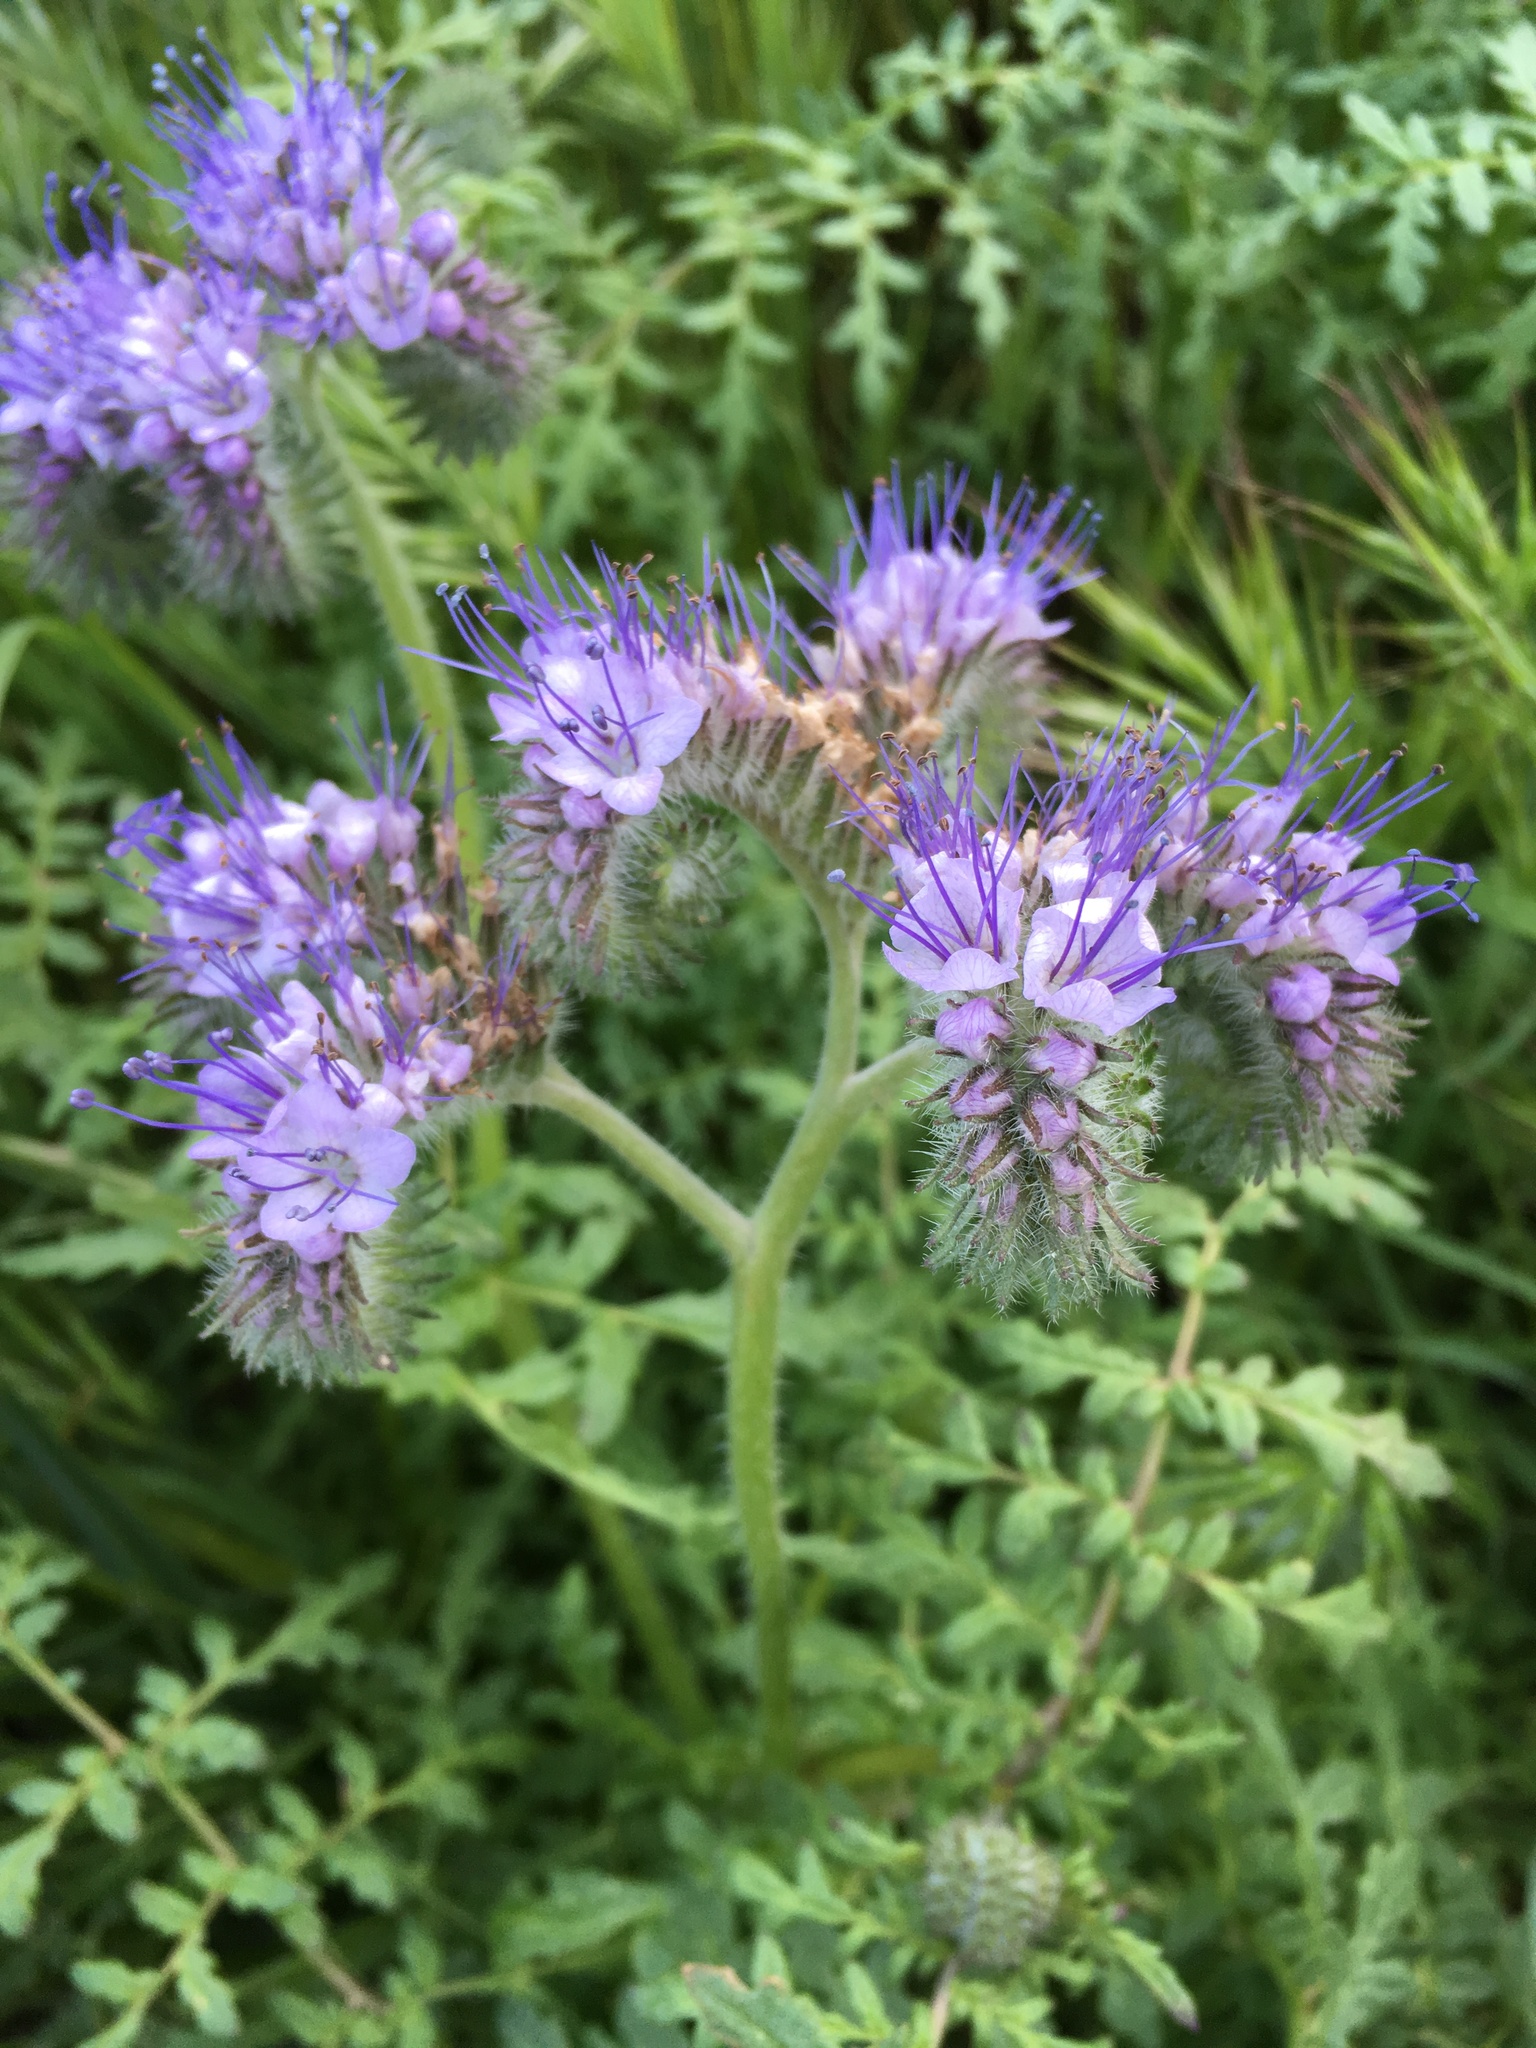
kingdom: Plantae
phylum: Tracheophyta
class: Magnoliopsida
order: Boraginales
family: Hydrophyllaceae
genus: Phacelia
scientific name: Phacelia tanacetifolia
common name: Phacelia
